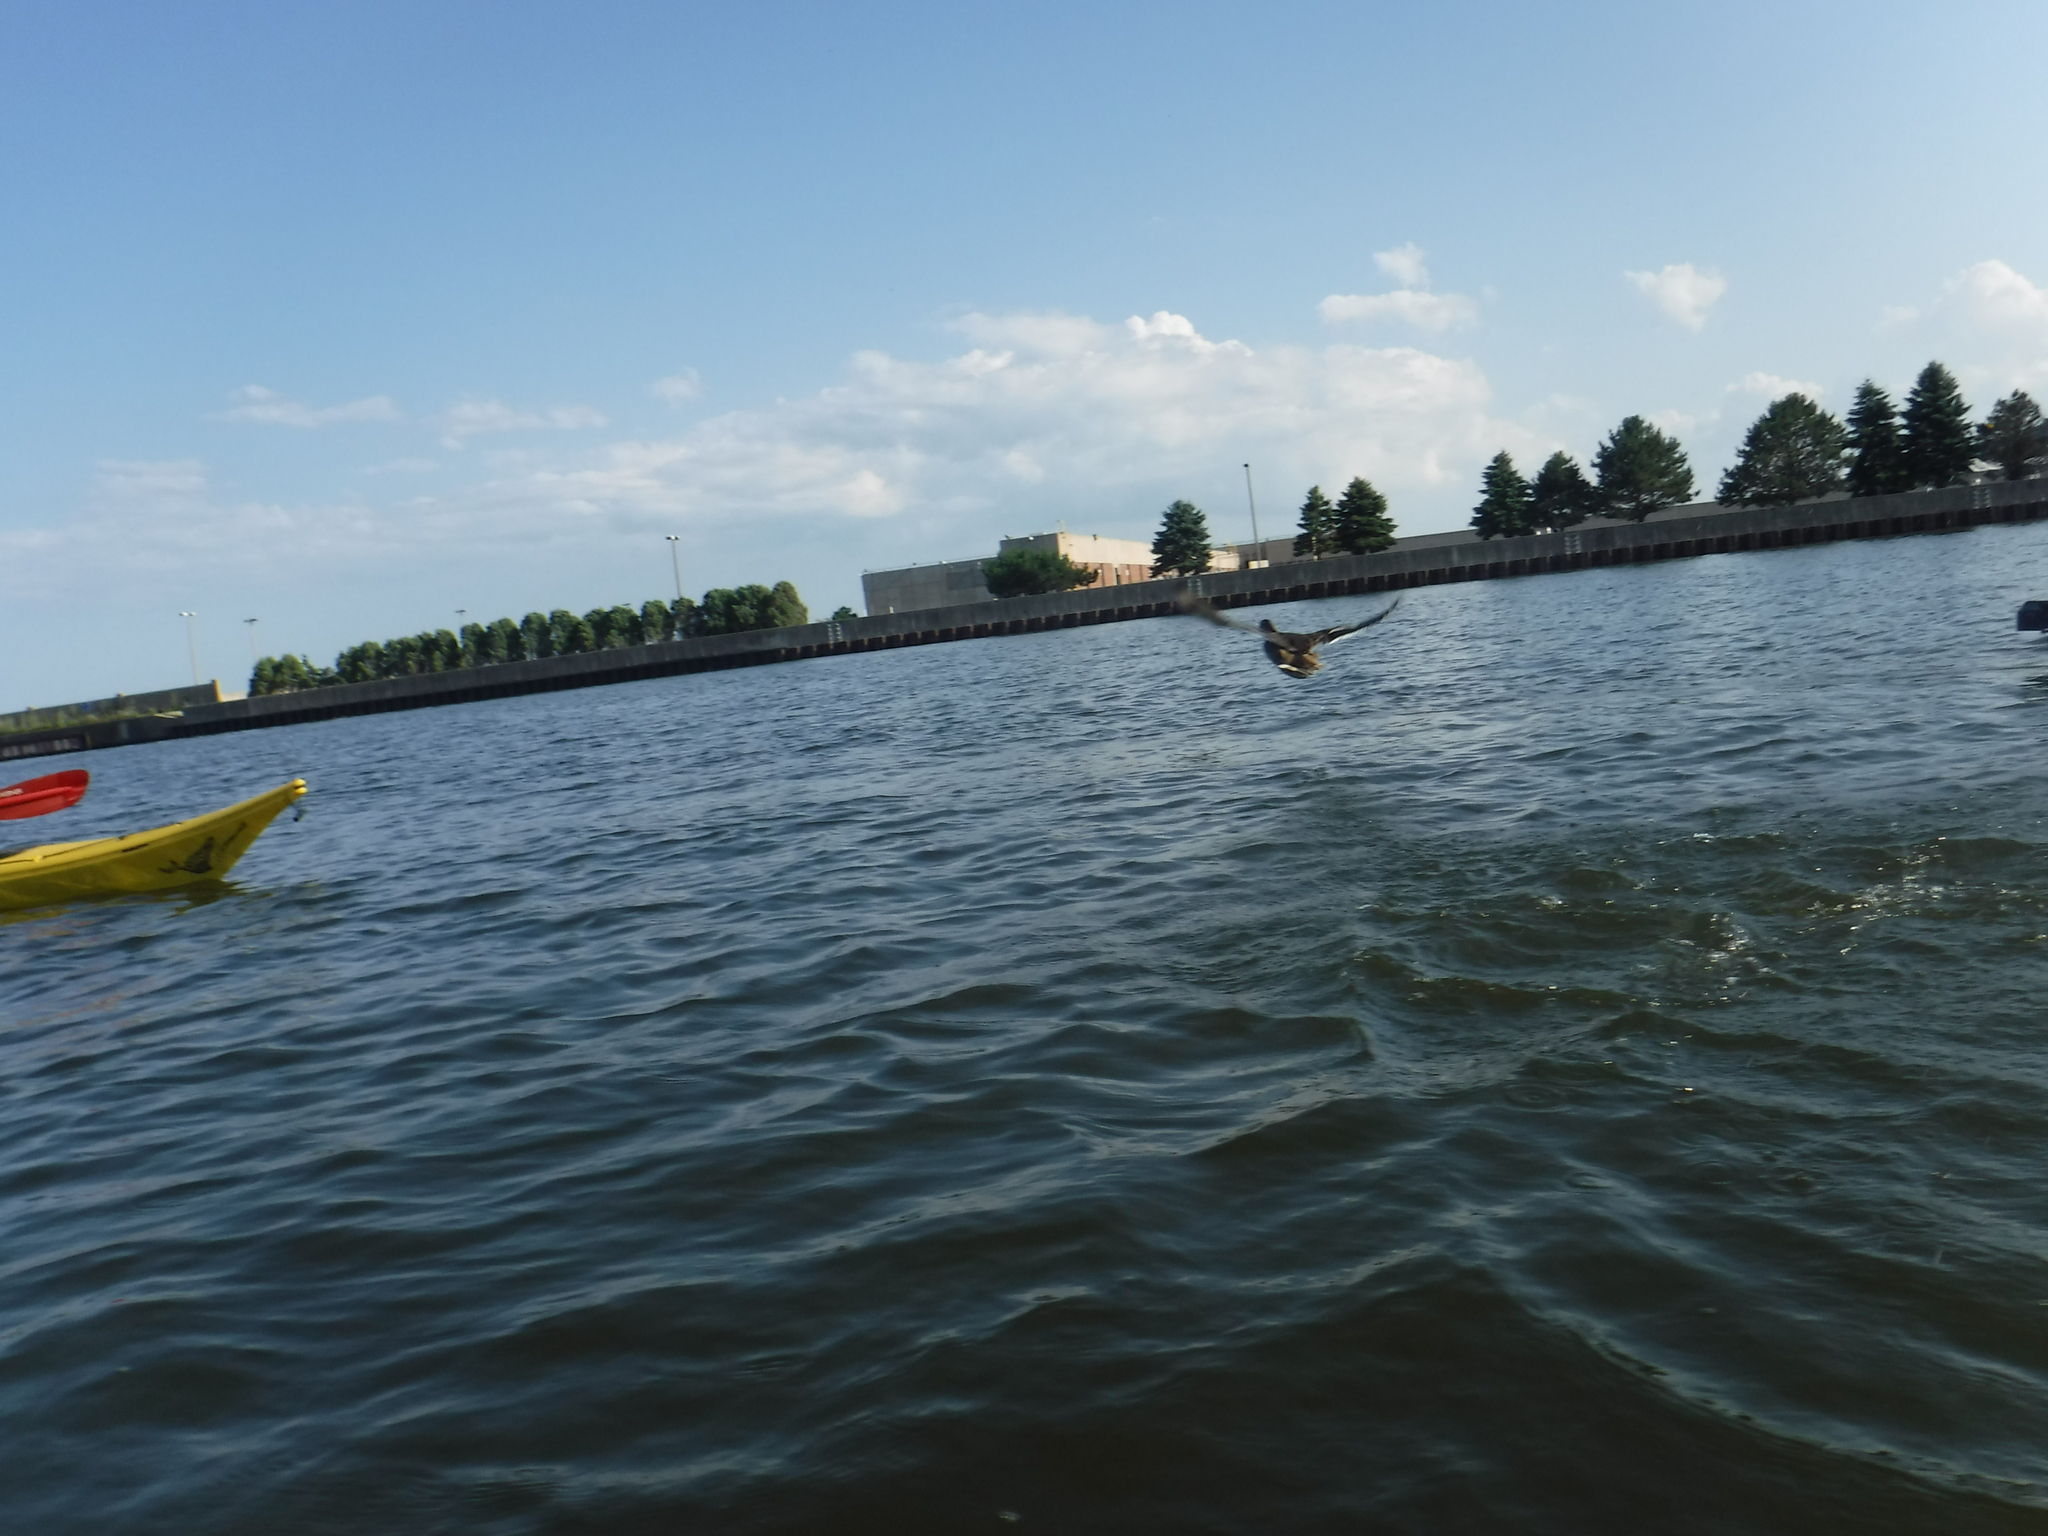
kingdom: Animalia
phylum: Chordata
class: Aves
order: Anseriformes
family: Anatidae
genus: Anas
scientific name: Anas platyrhynchos
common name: Mallard
